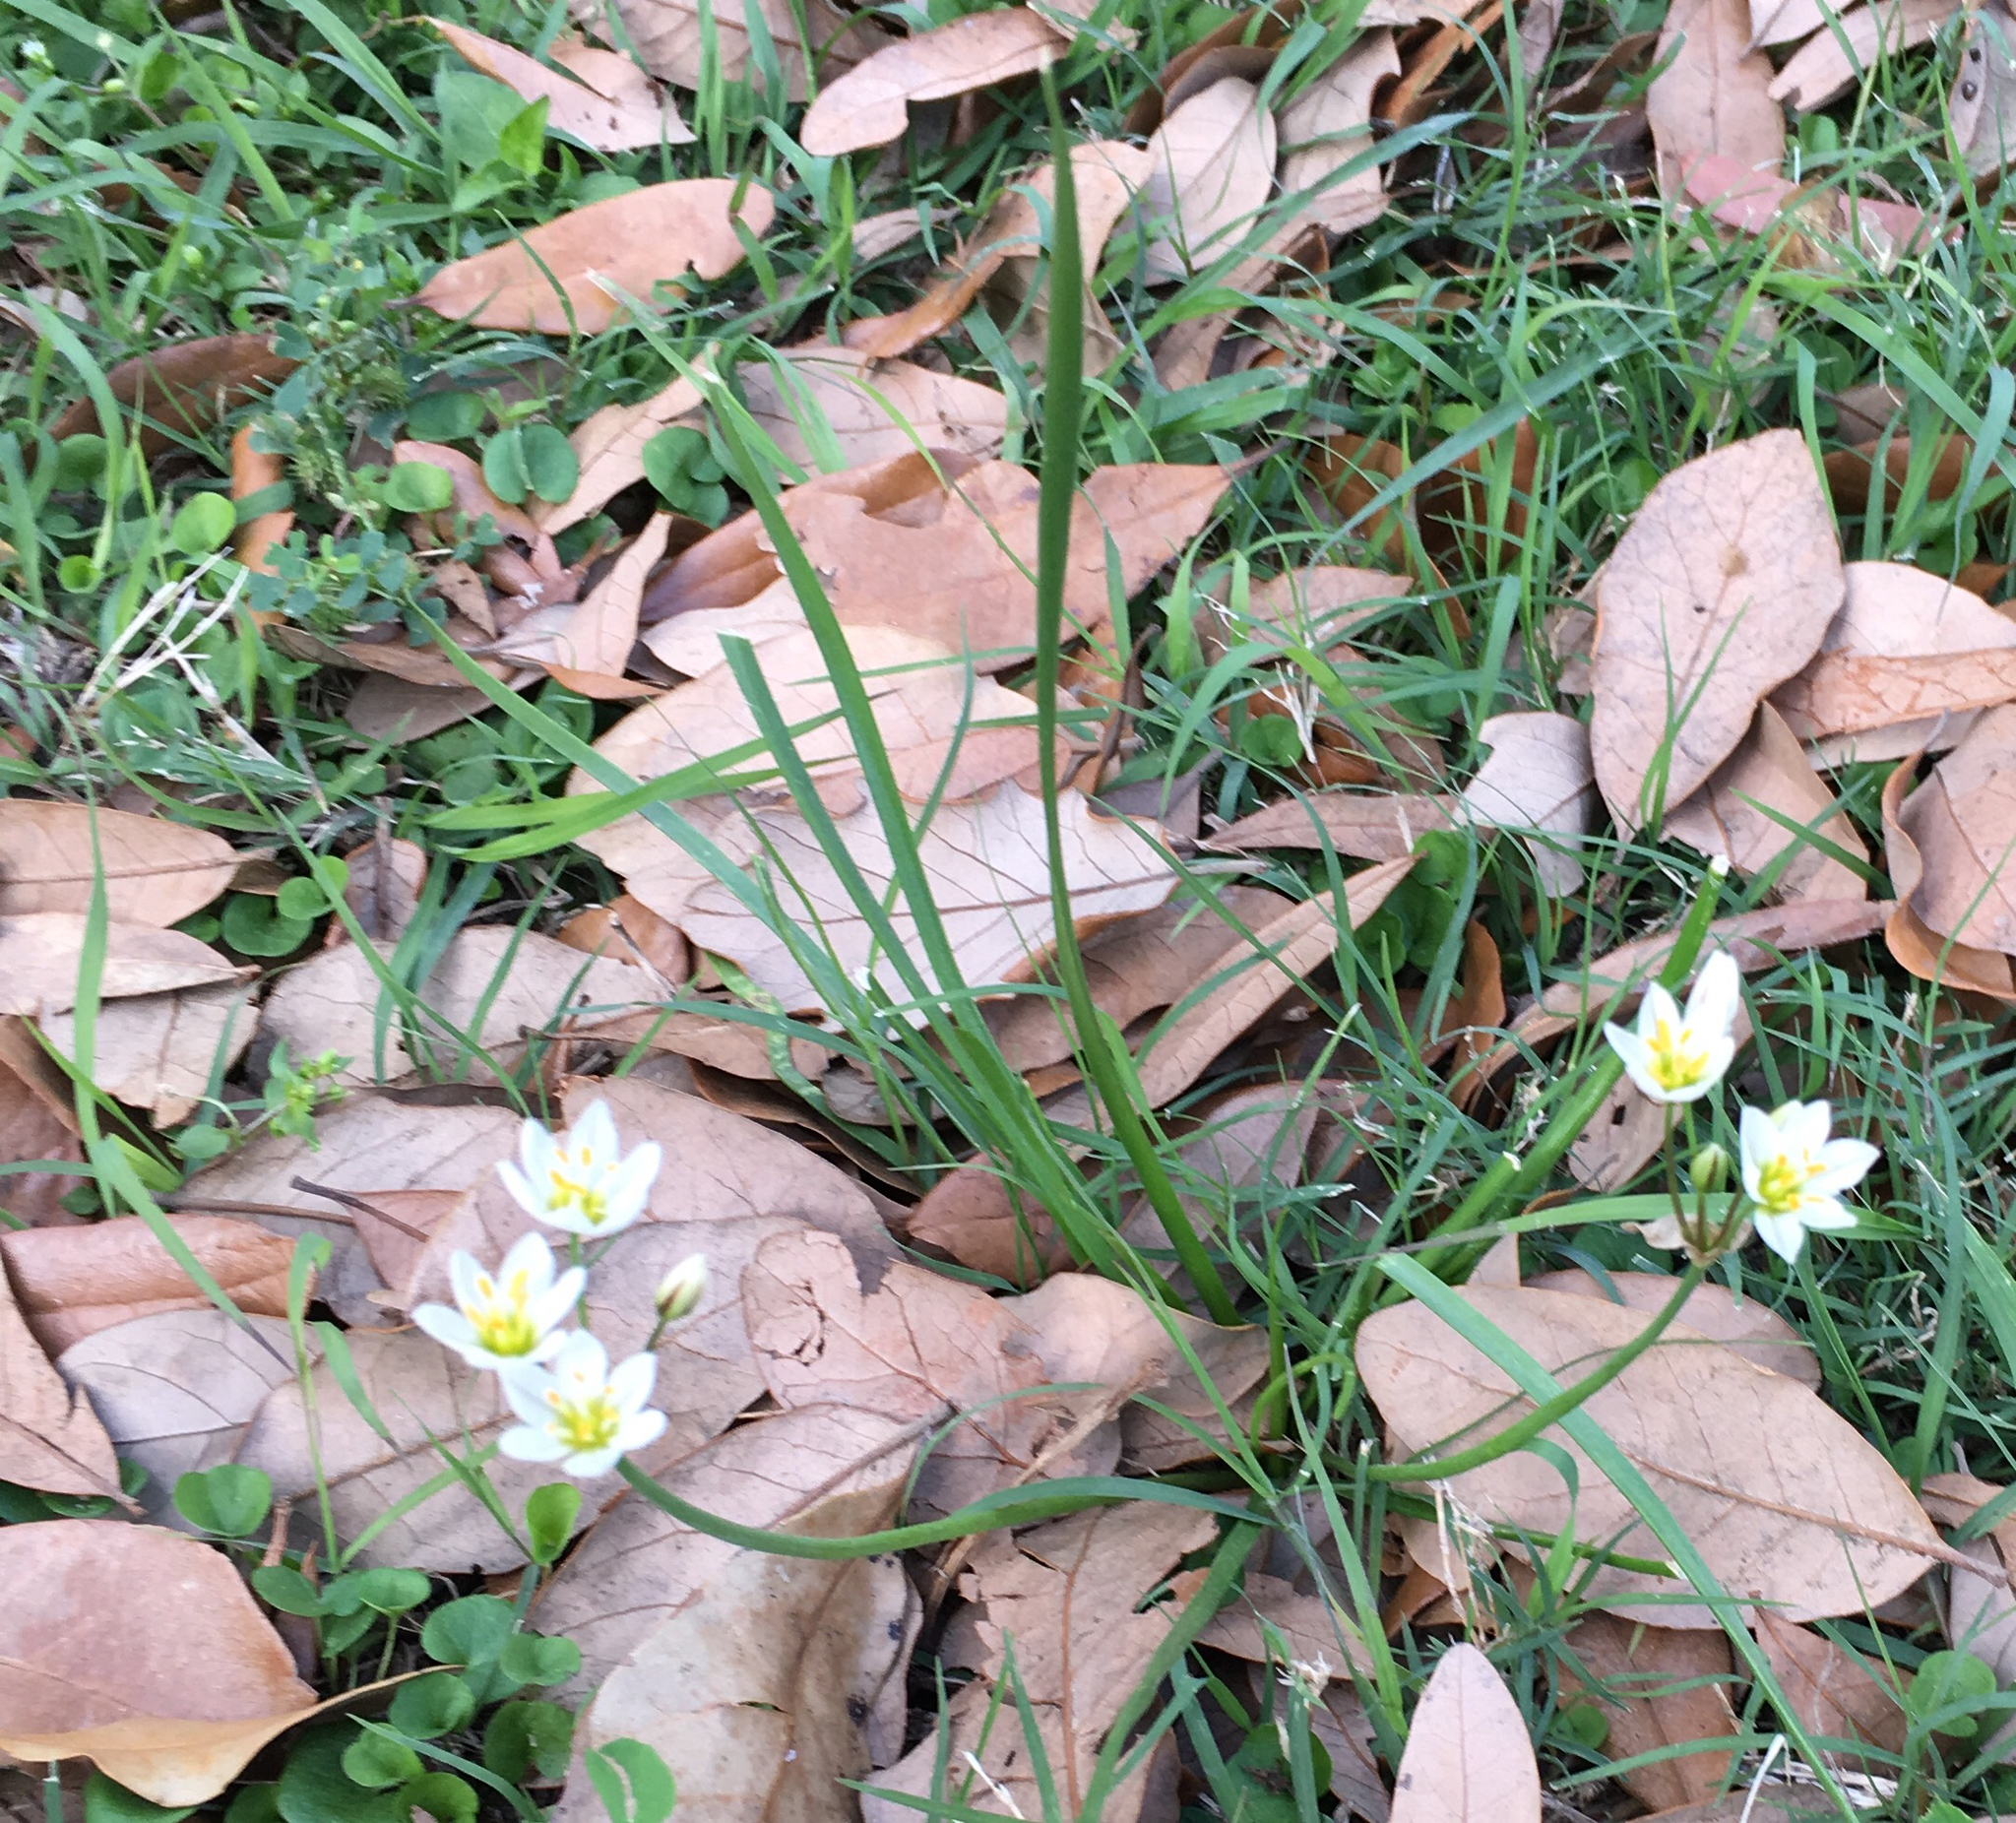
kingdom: Plantae
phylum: Tracheophyta
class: Liliopsida
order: Asparagales
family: Amaryllidaceae
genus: Nothoscordum
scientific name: Nothoscordum bivalve
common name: Crow-poison
